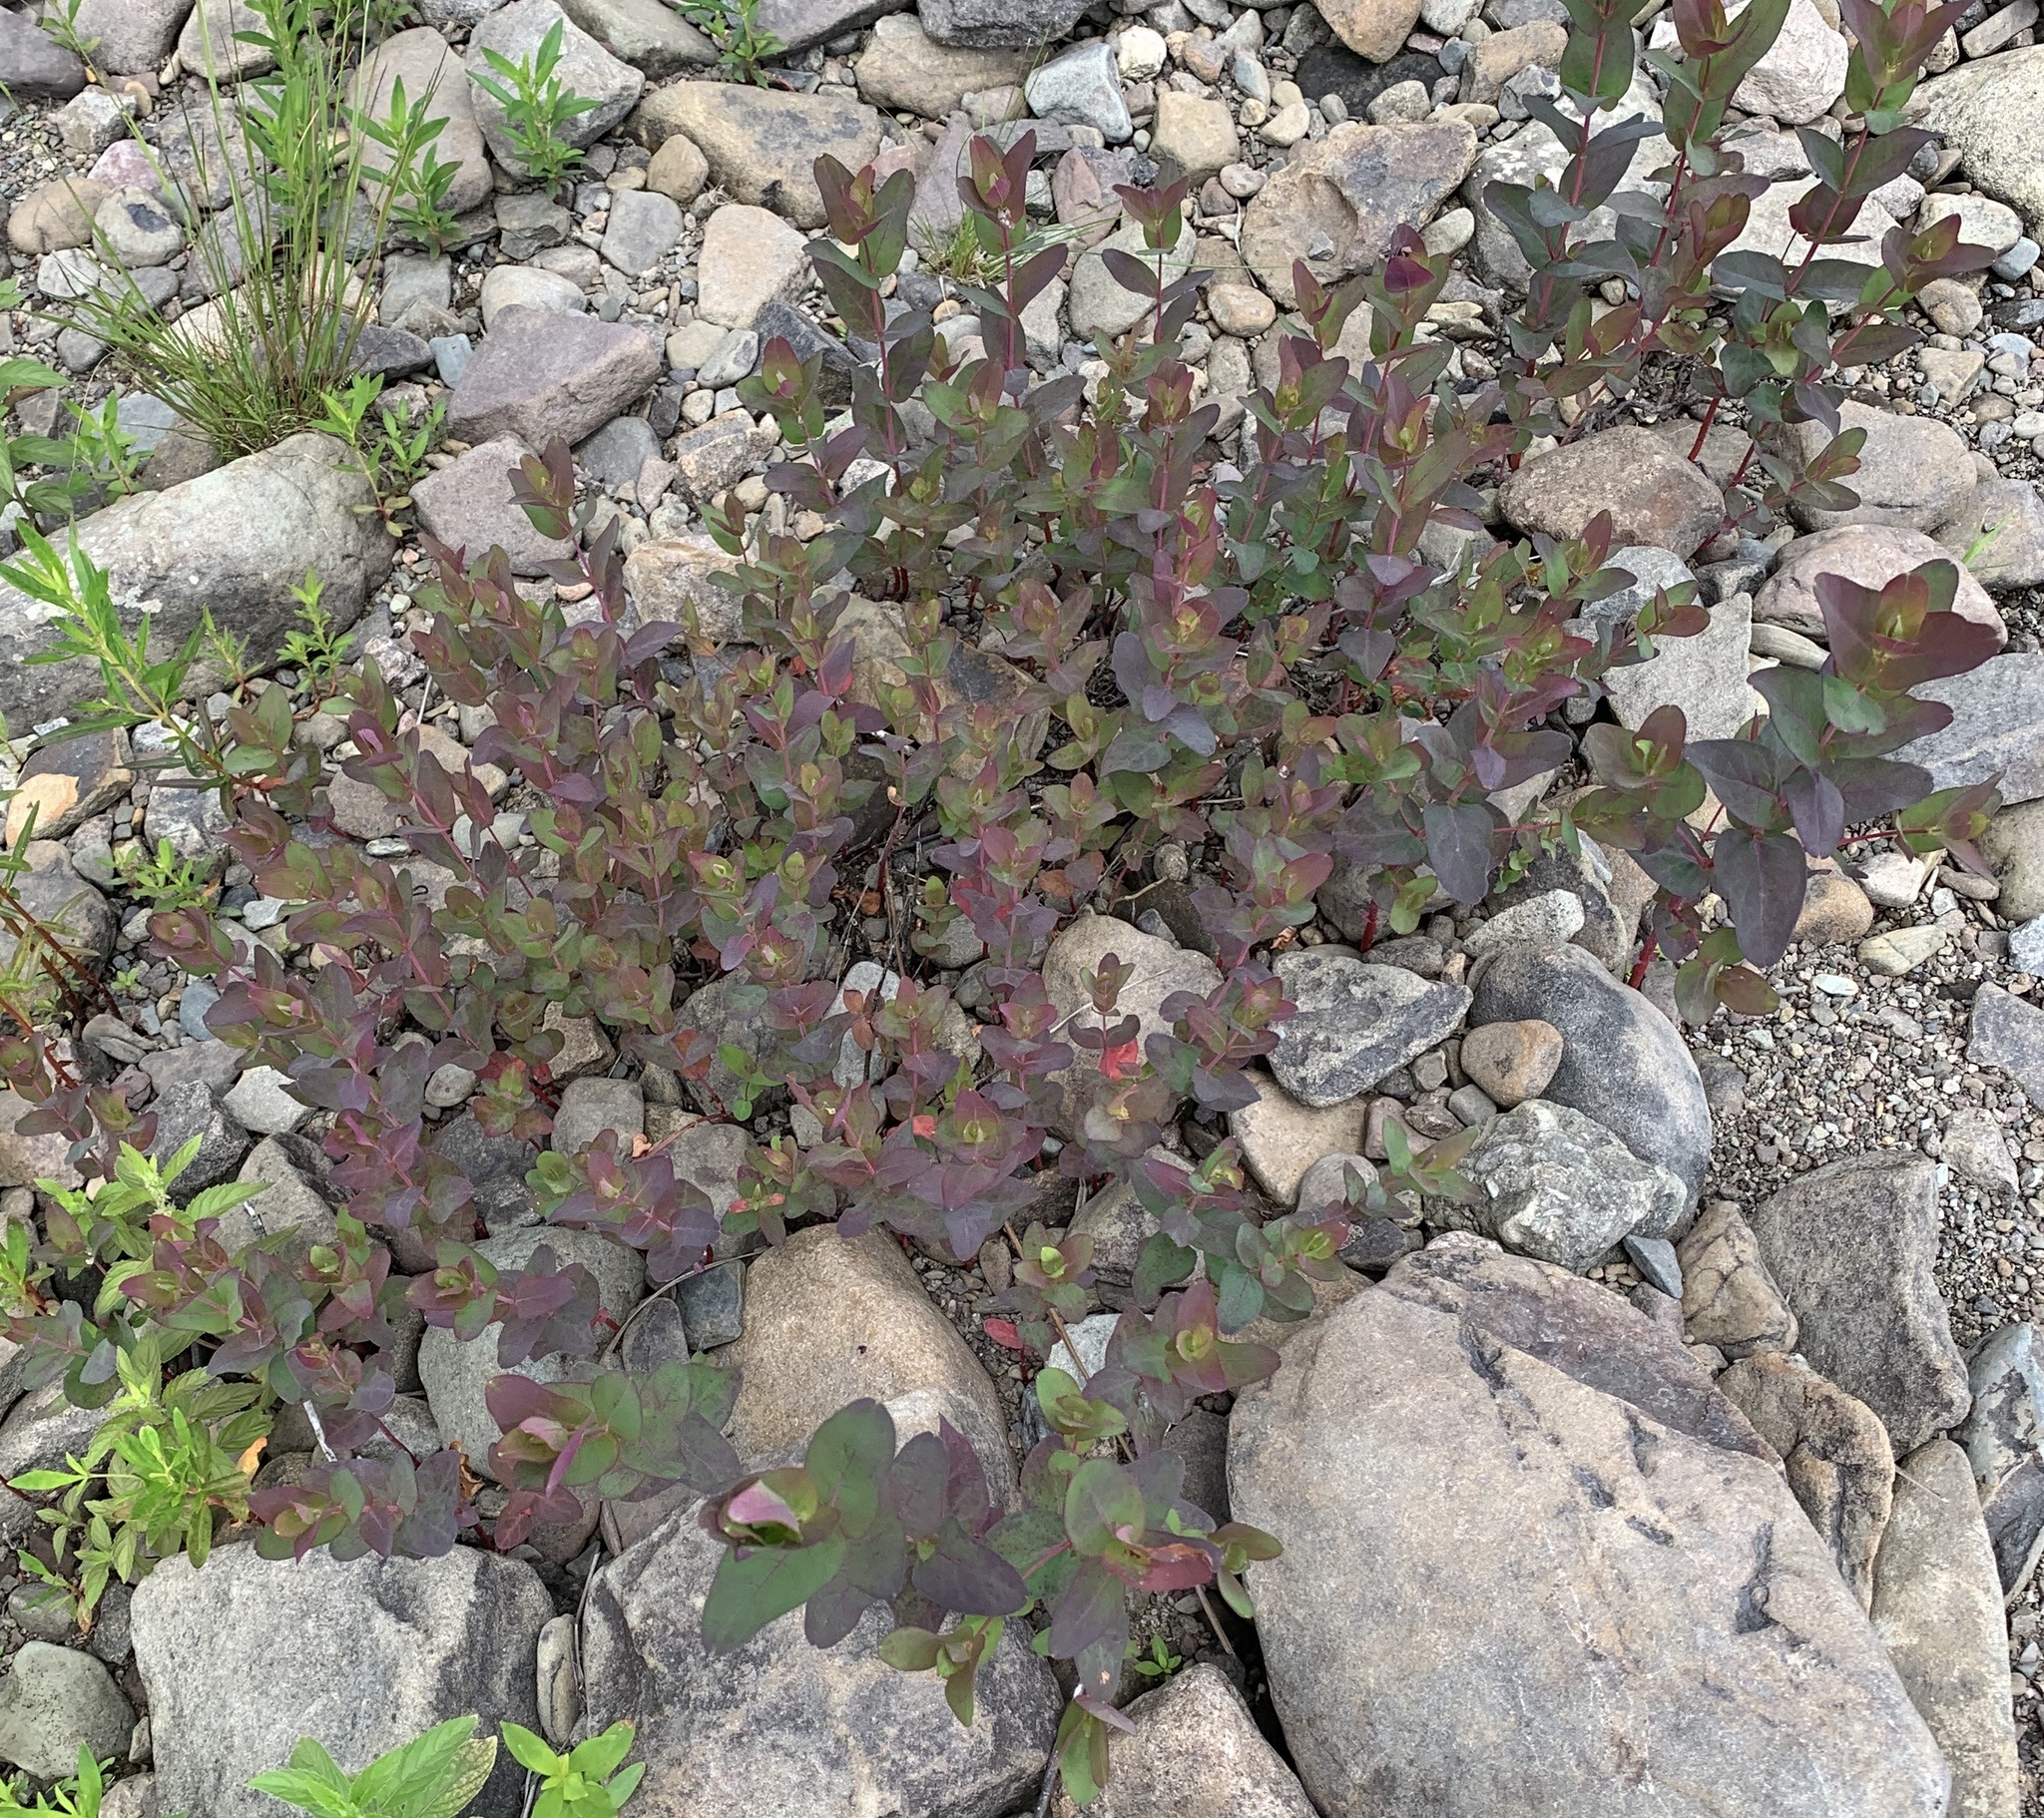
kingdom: Plantae
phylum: Tracheophyta
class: Magnoliopsida
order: Malpighiales
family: Hypericaceae
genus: Triadenum
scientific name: Triadenum fraseri
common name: Fraser's marsh st. johnswort
